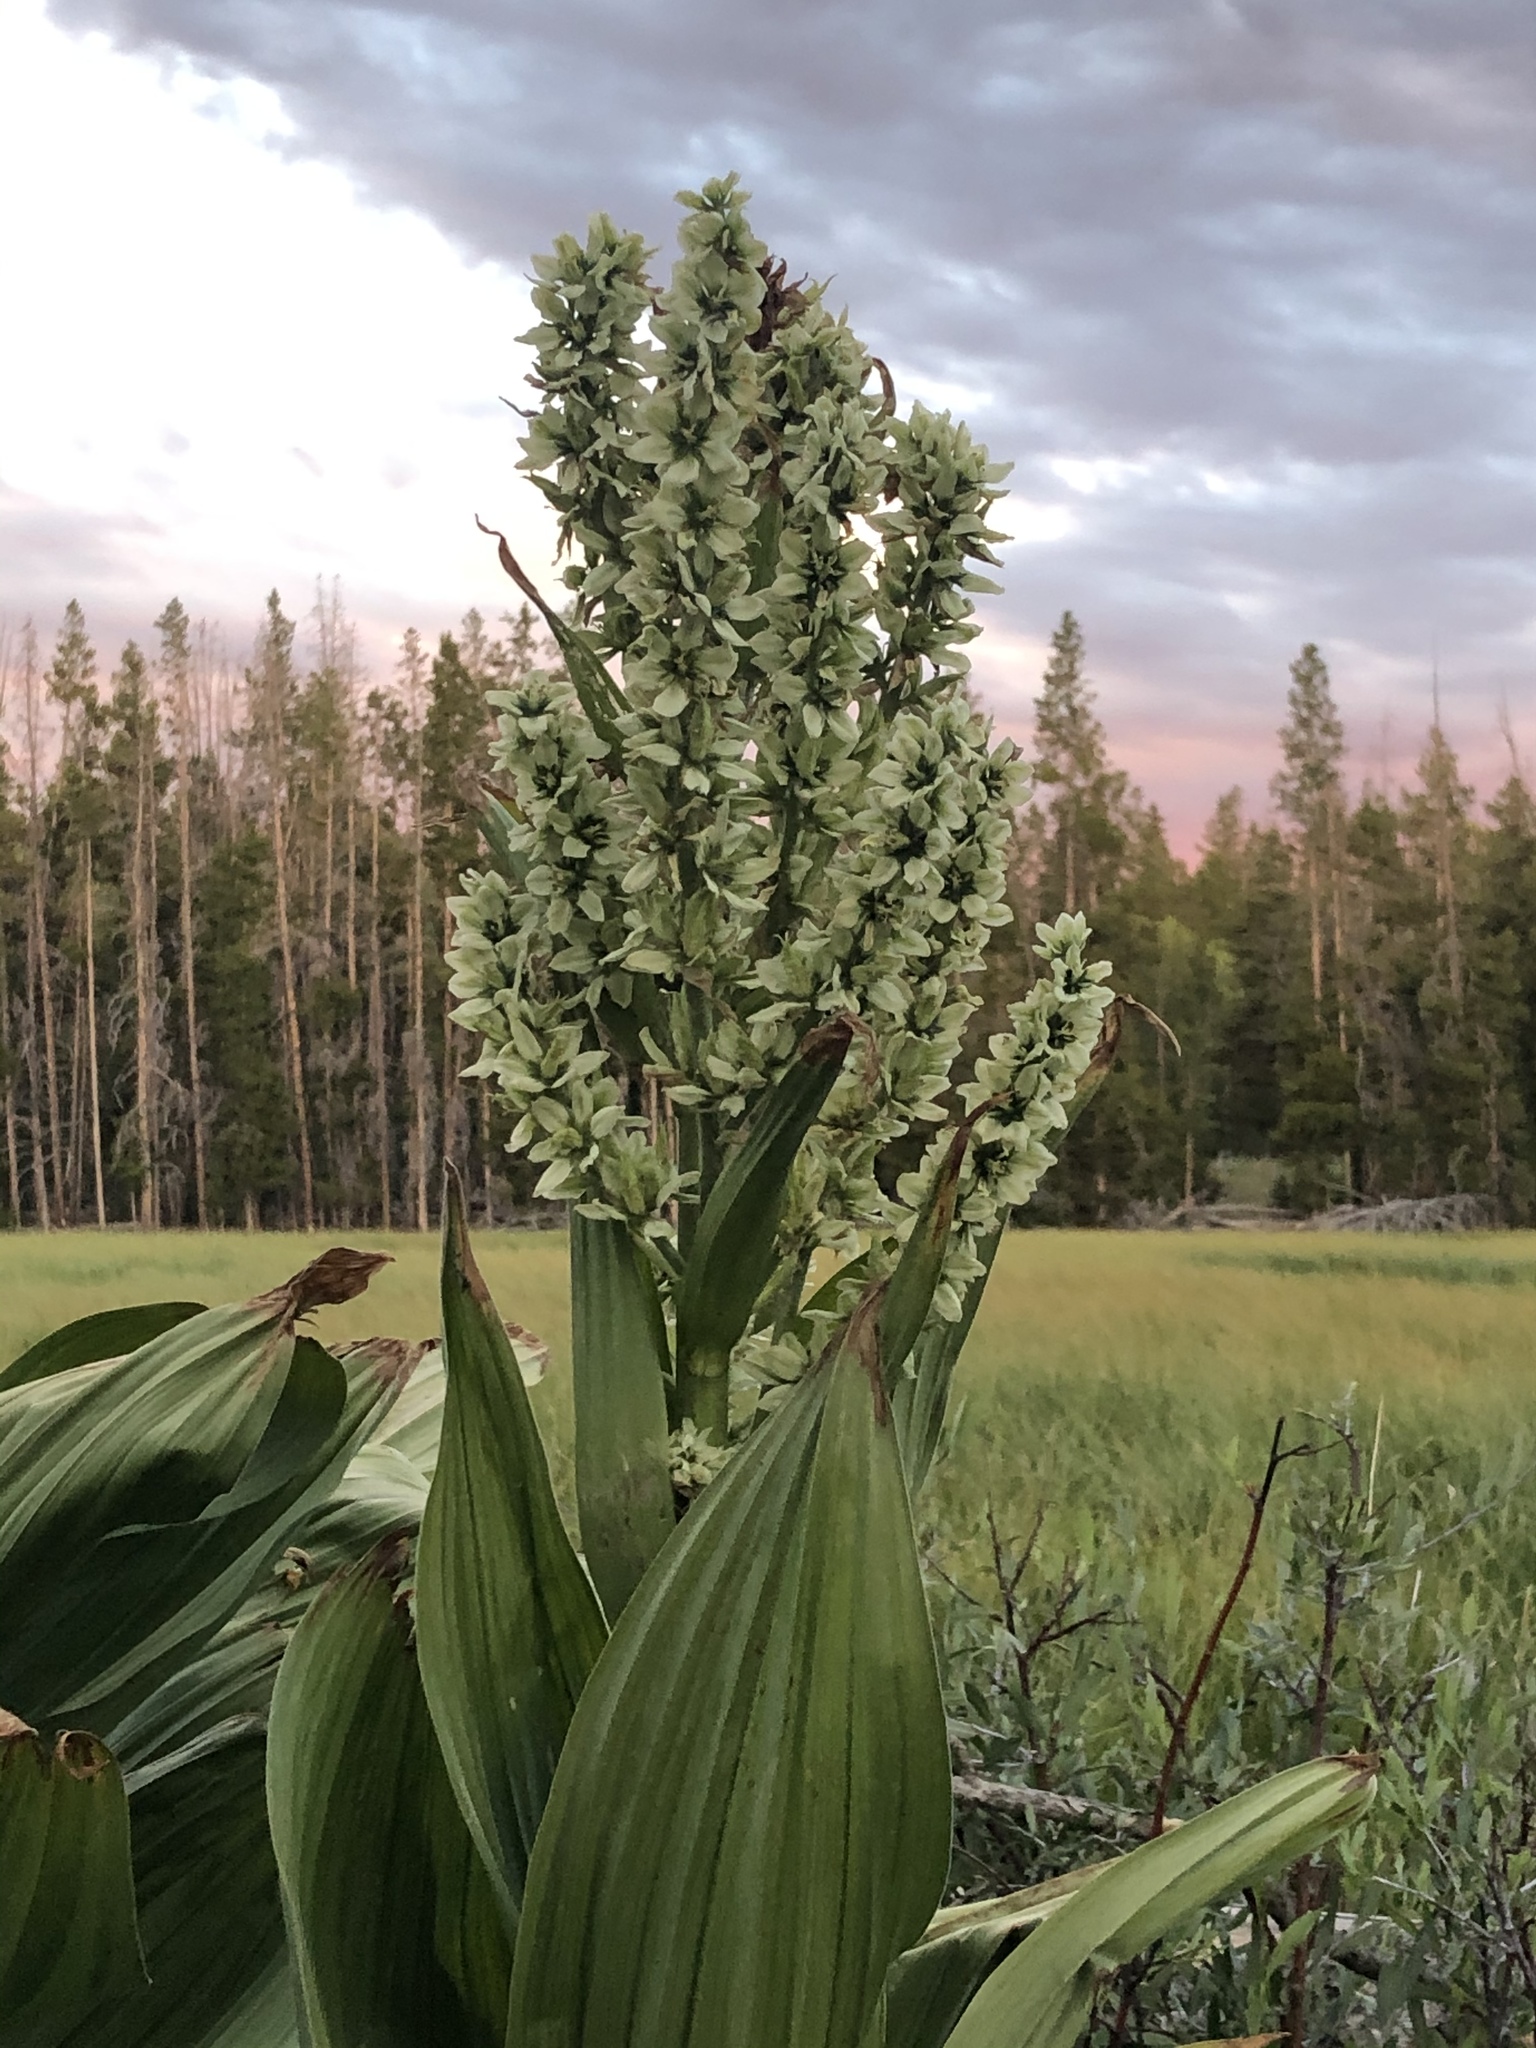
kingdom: Plantae
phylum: Tracheophyta
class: Liliopsida
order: Liliales
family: Melanthiaceae
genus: Veratrum
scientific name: Veratrum californicum
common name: California veratrum
